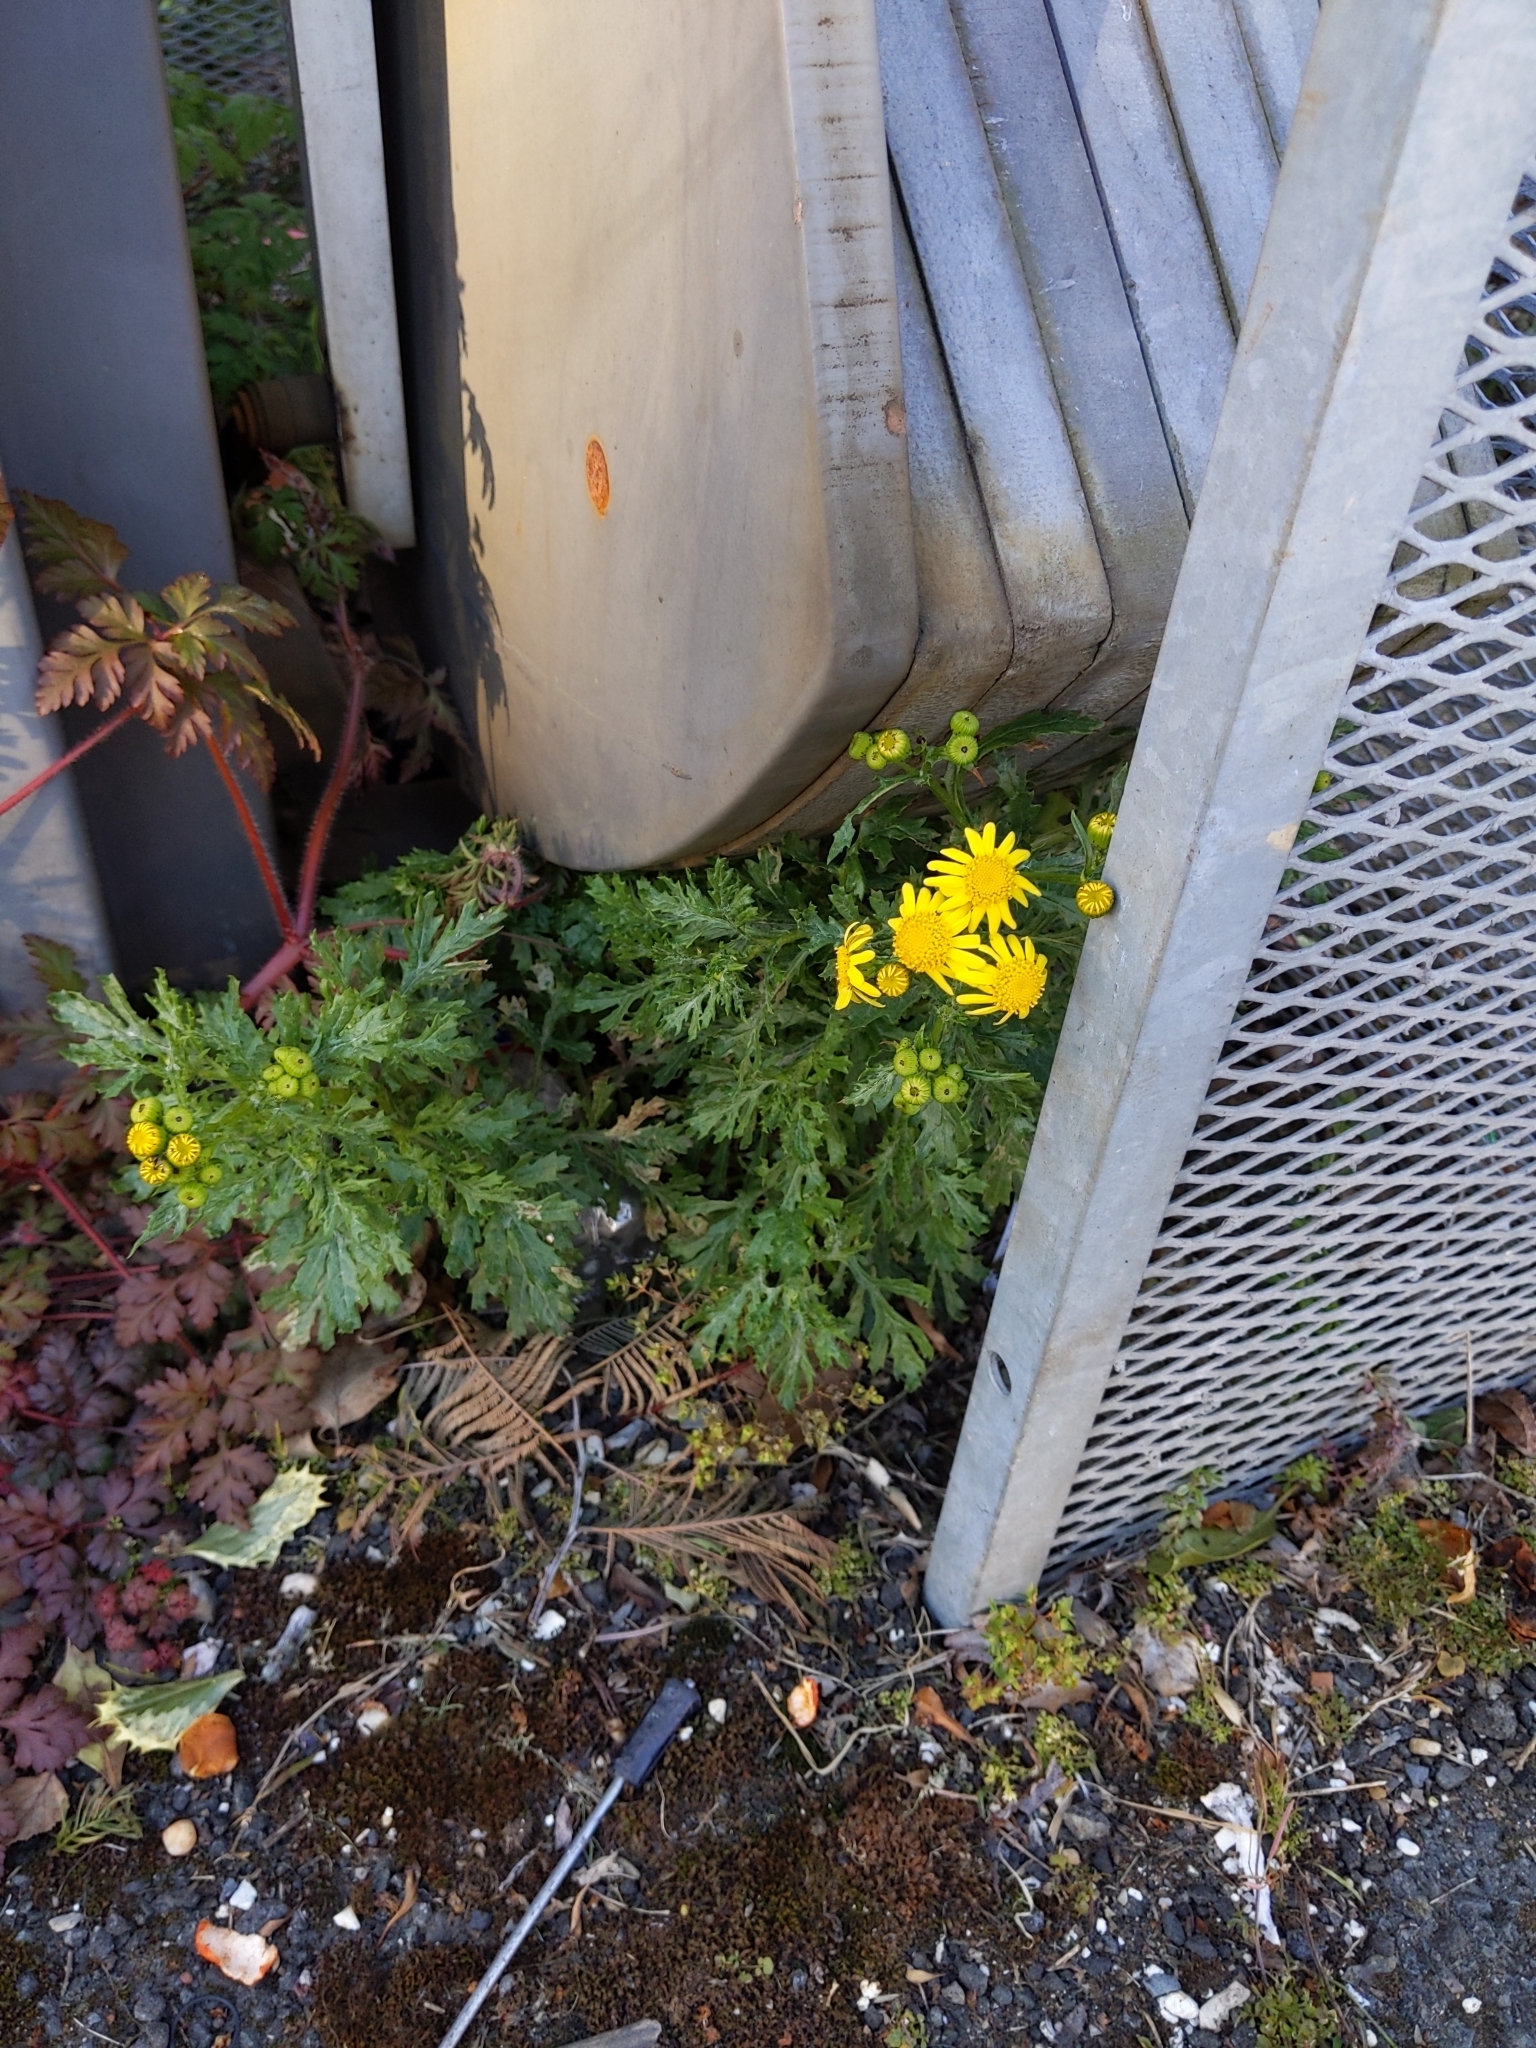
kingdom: Plantae
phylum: Tracheophyta
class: Magnoliopsida
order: Asterales
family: Asteraceae
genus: Senecio
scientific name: Senecio squalidus
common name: Oxford ragwort
